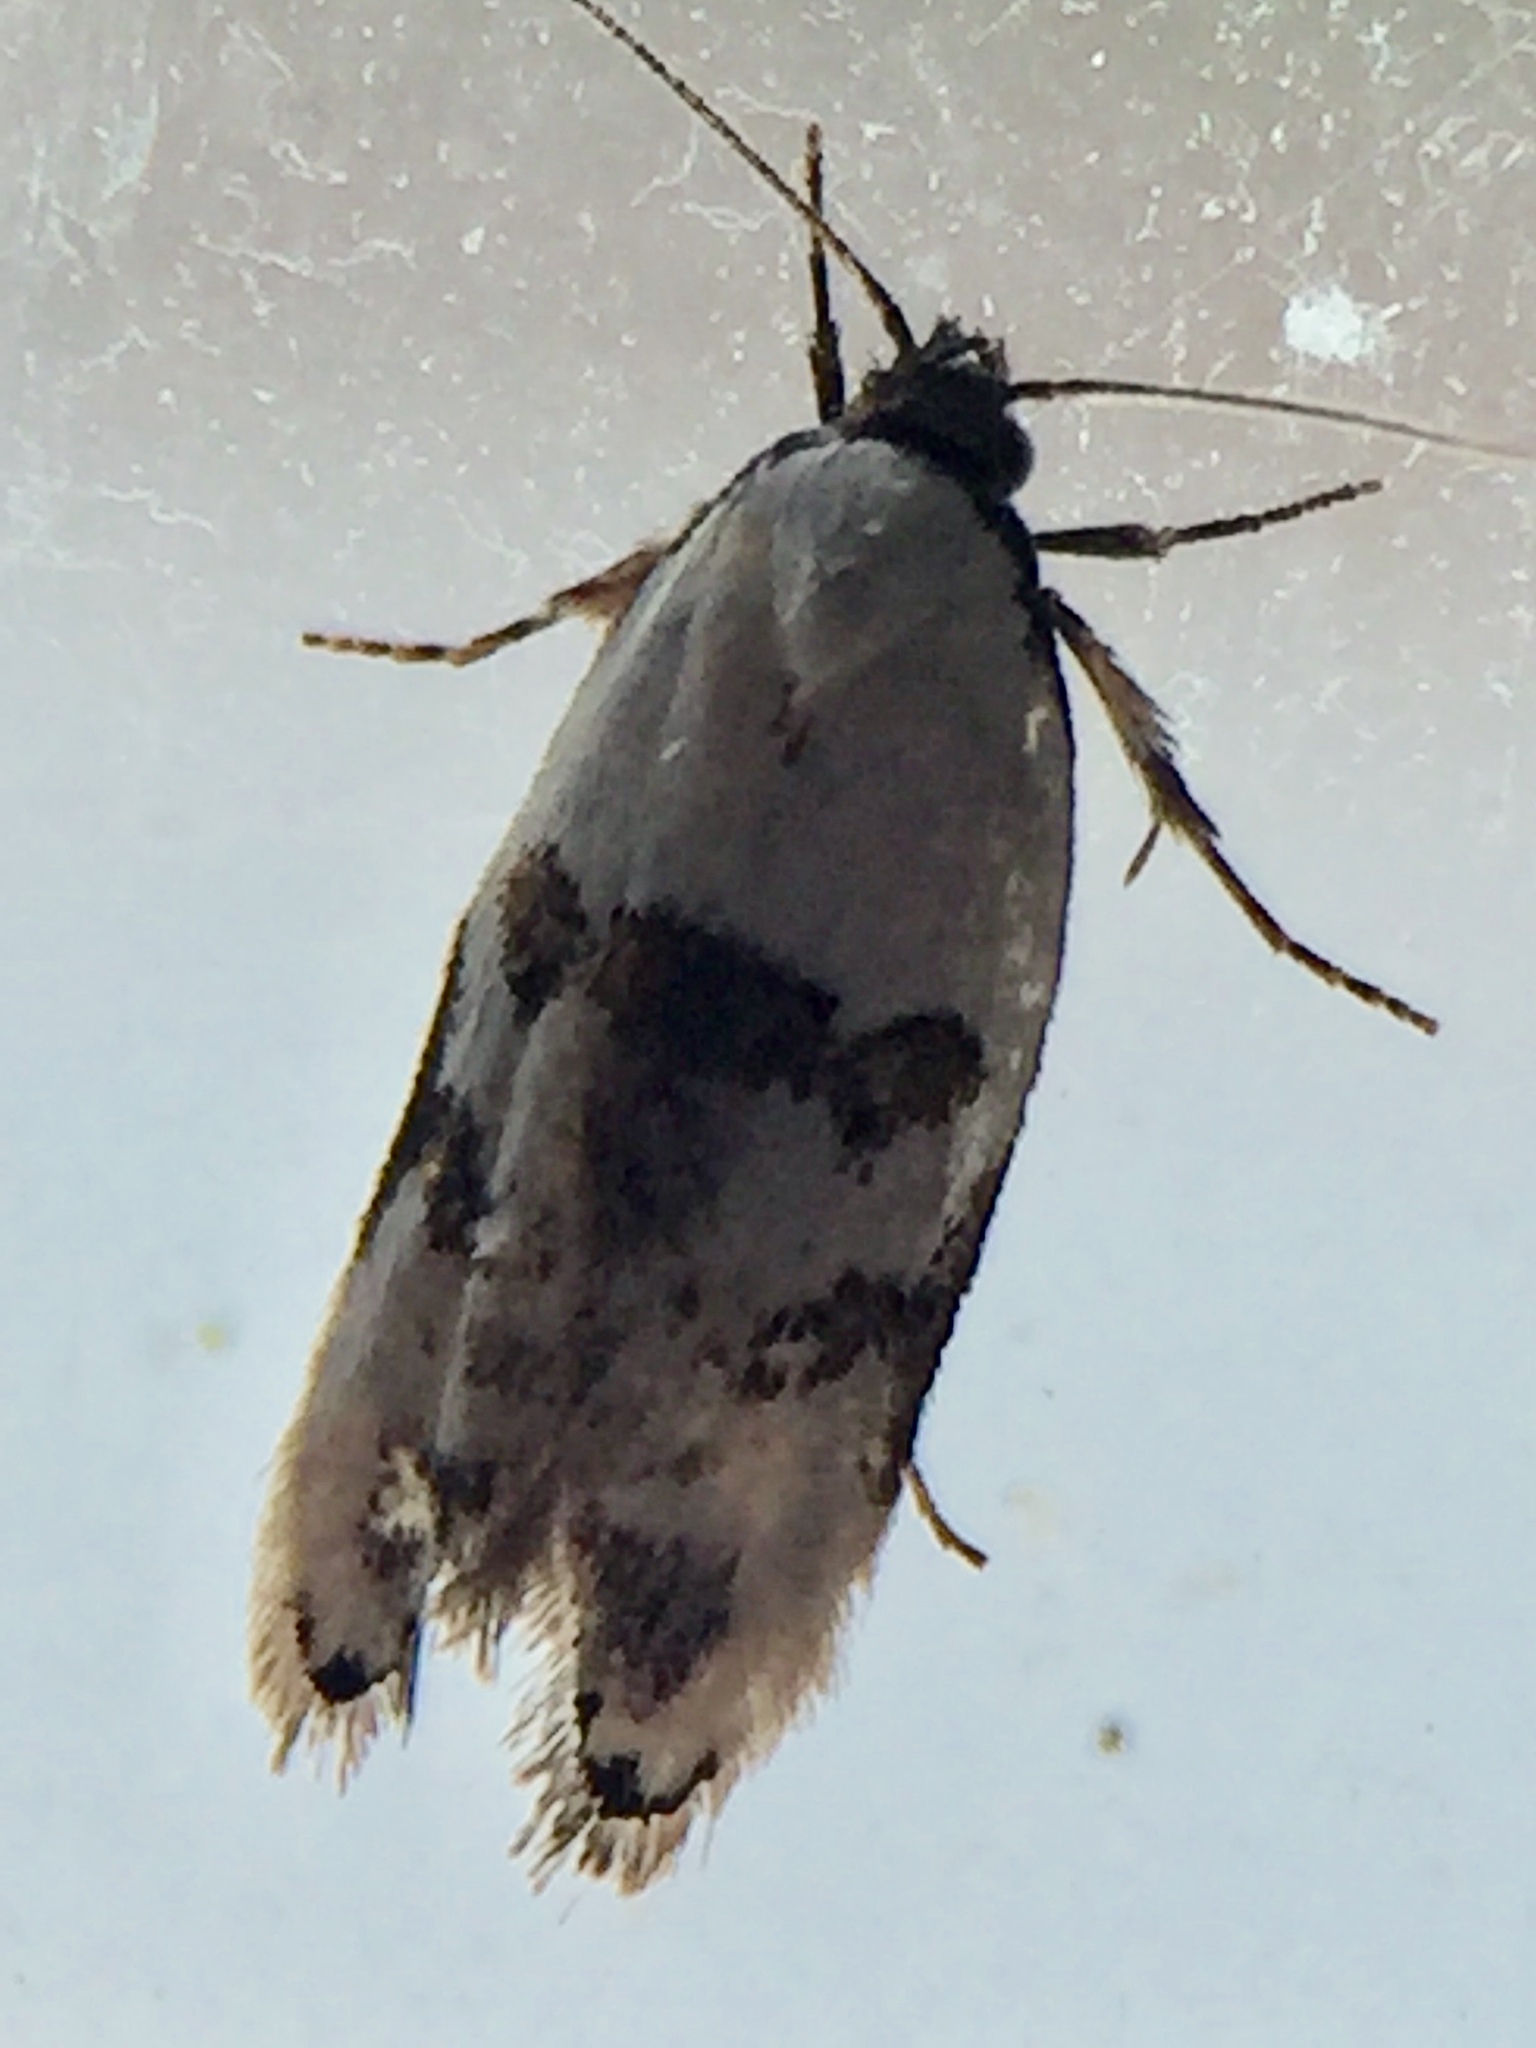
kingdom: Animalia
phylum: Arthropoda
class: Insecta
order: Lepidoptera
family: Oecophoridae
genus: Trachypepla
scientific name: Trachypepla hieropis
